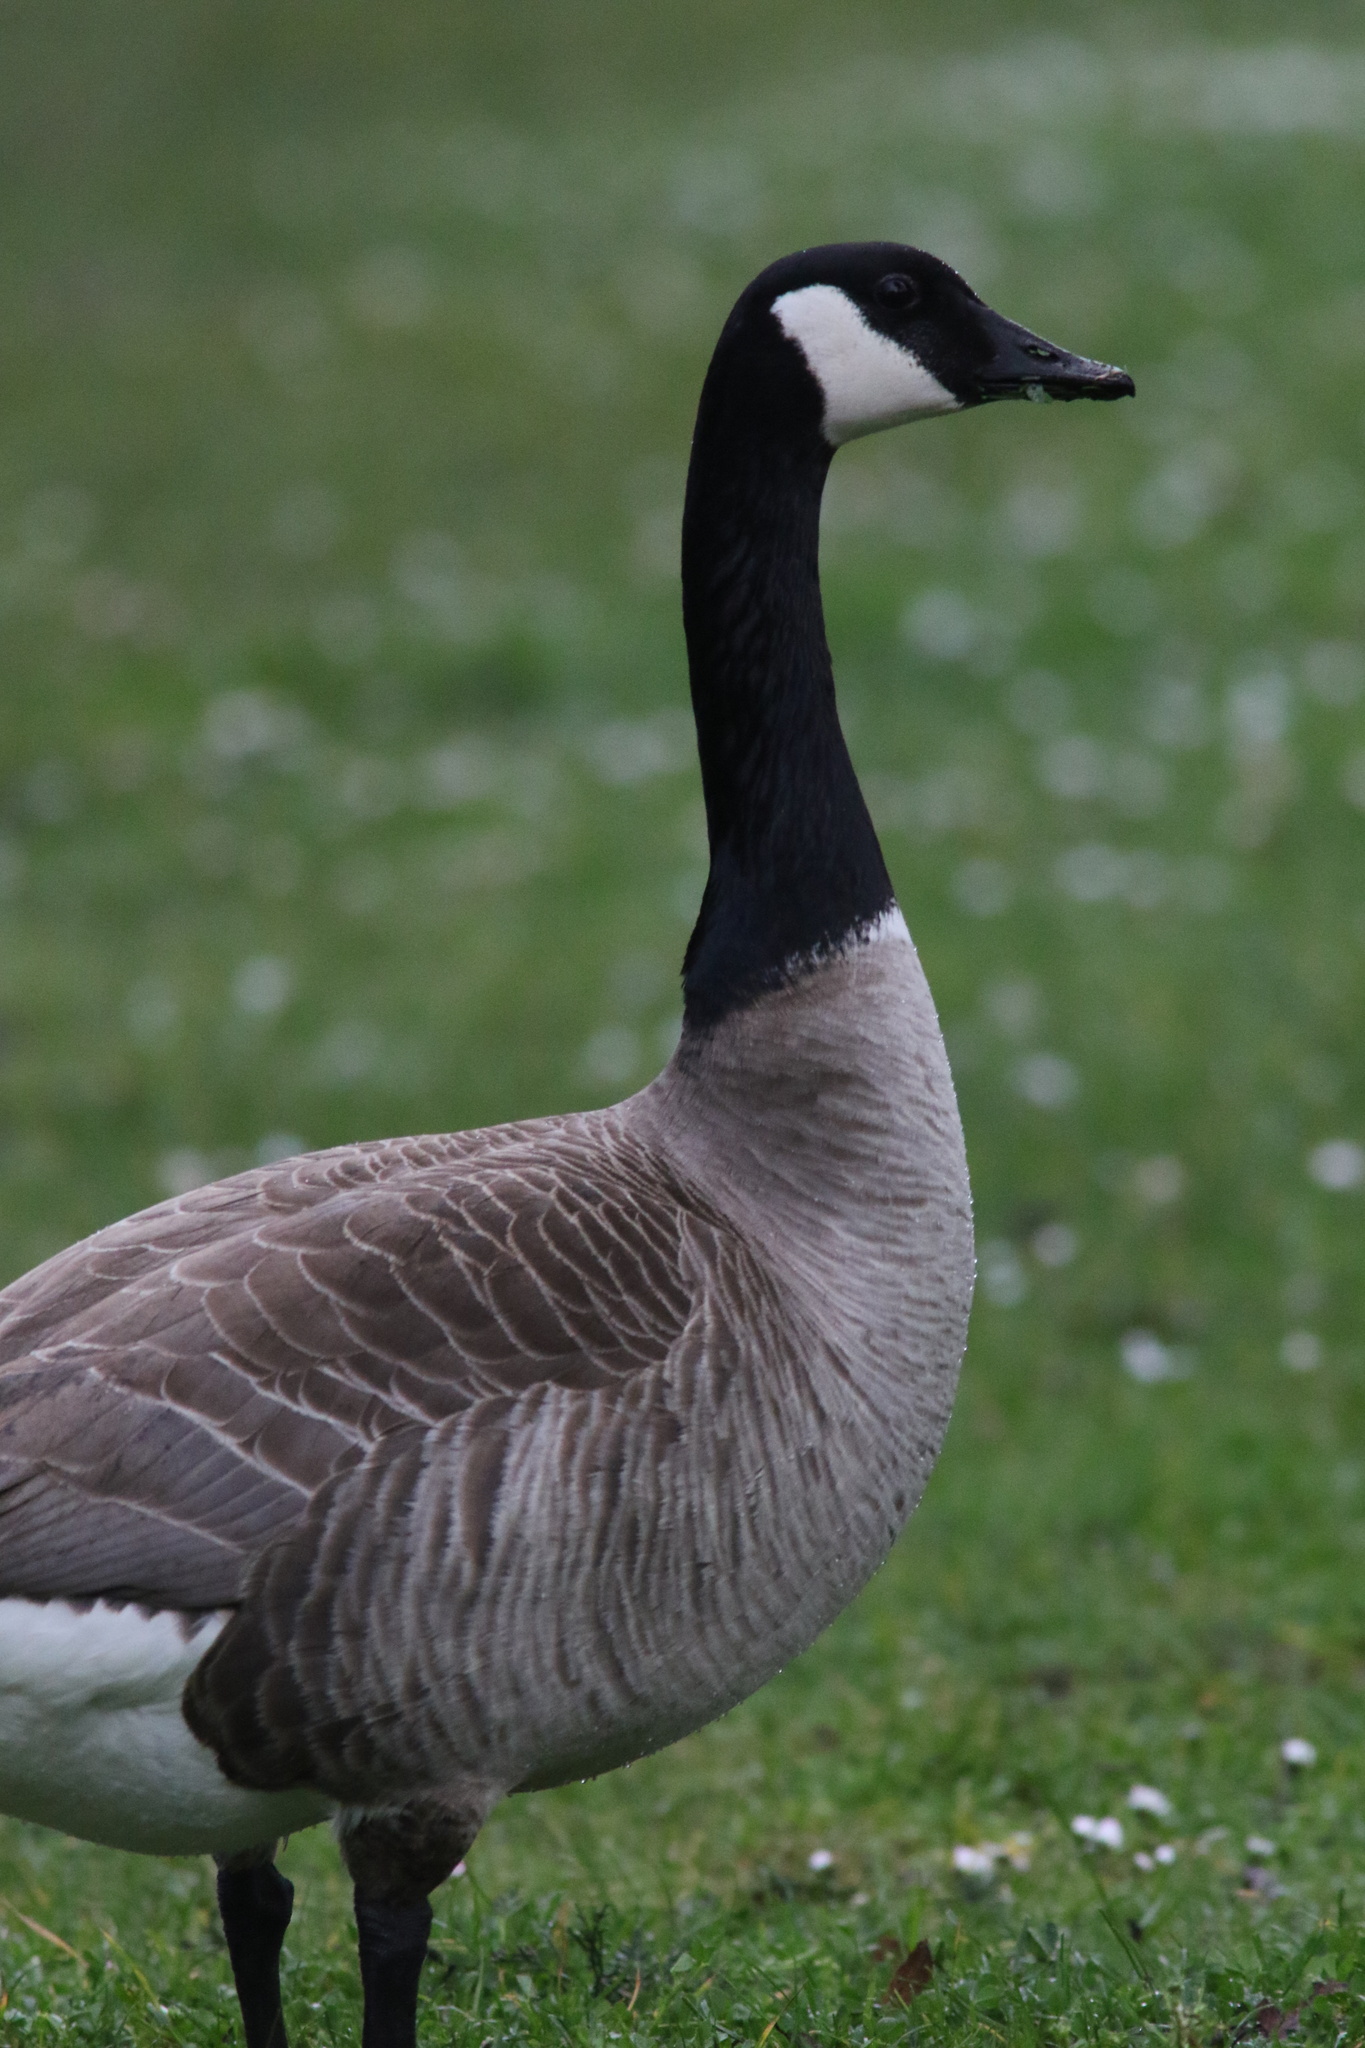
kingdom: Animalia
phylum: Chordata
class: Aves
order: Anseriformes
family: Anatidae
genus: Branta
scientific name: Branta canadensis
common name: Canada goose
